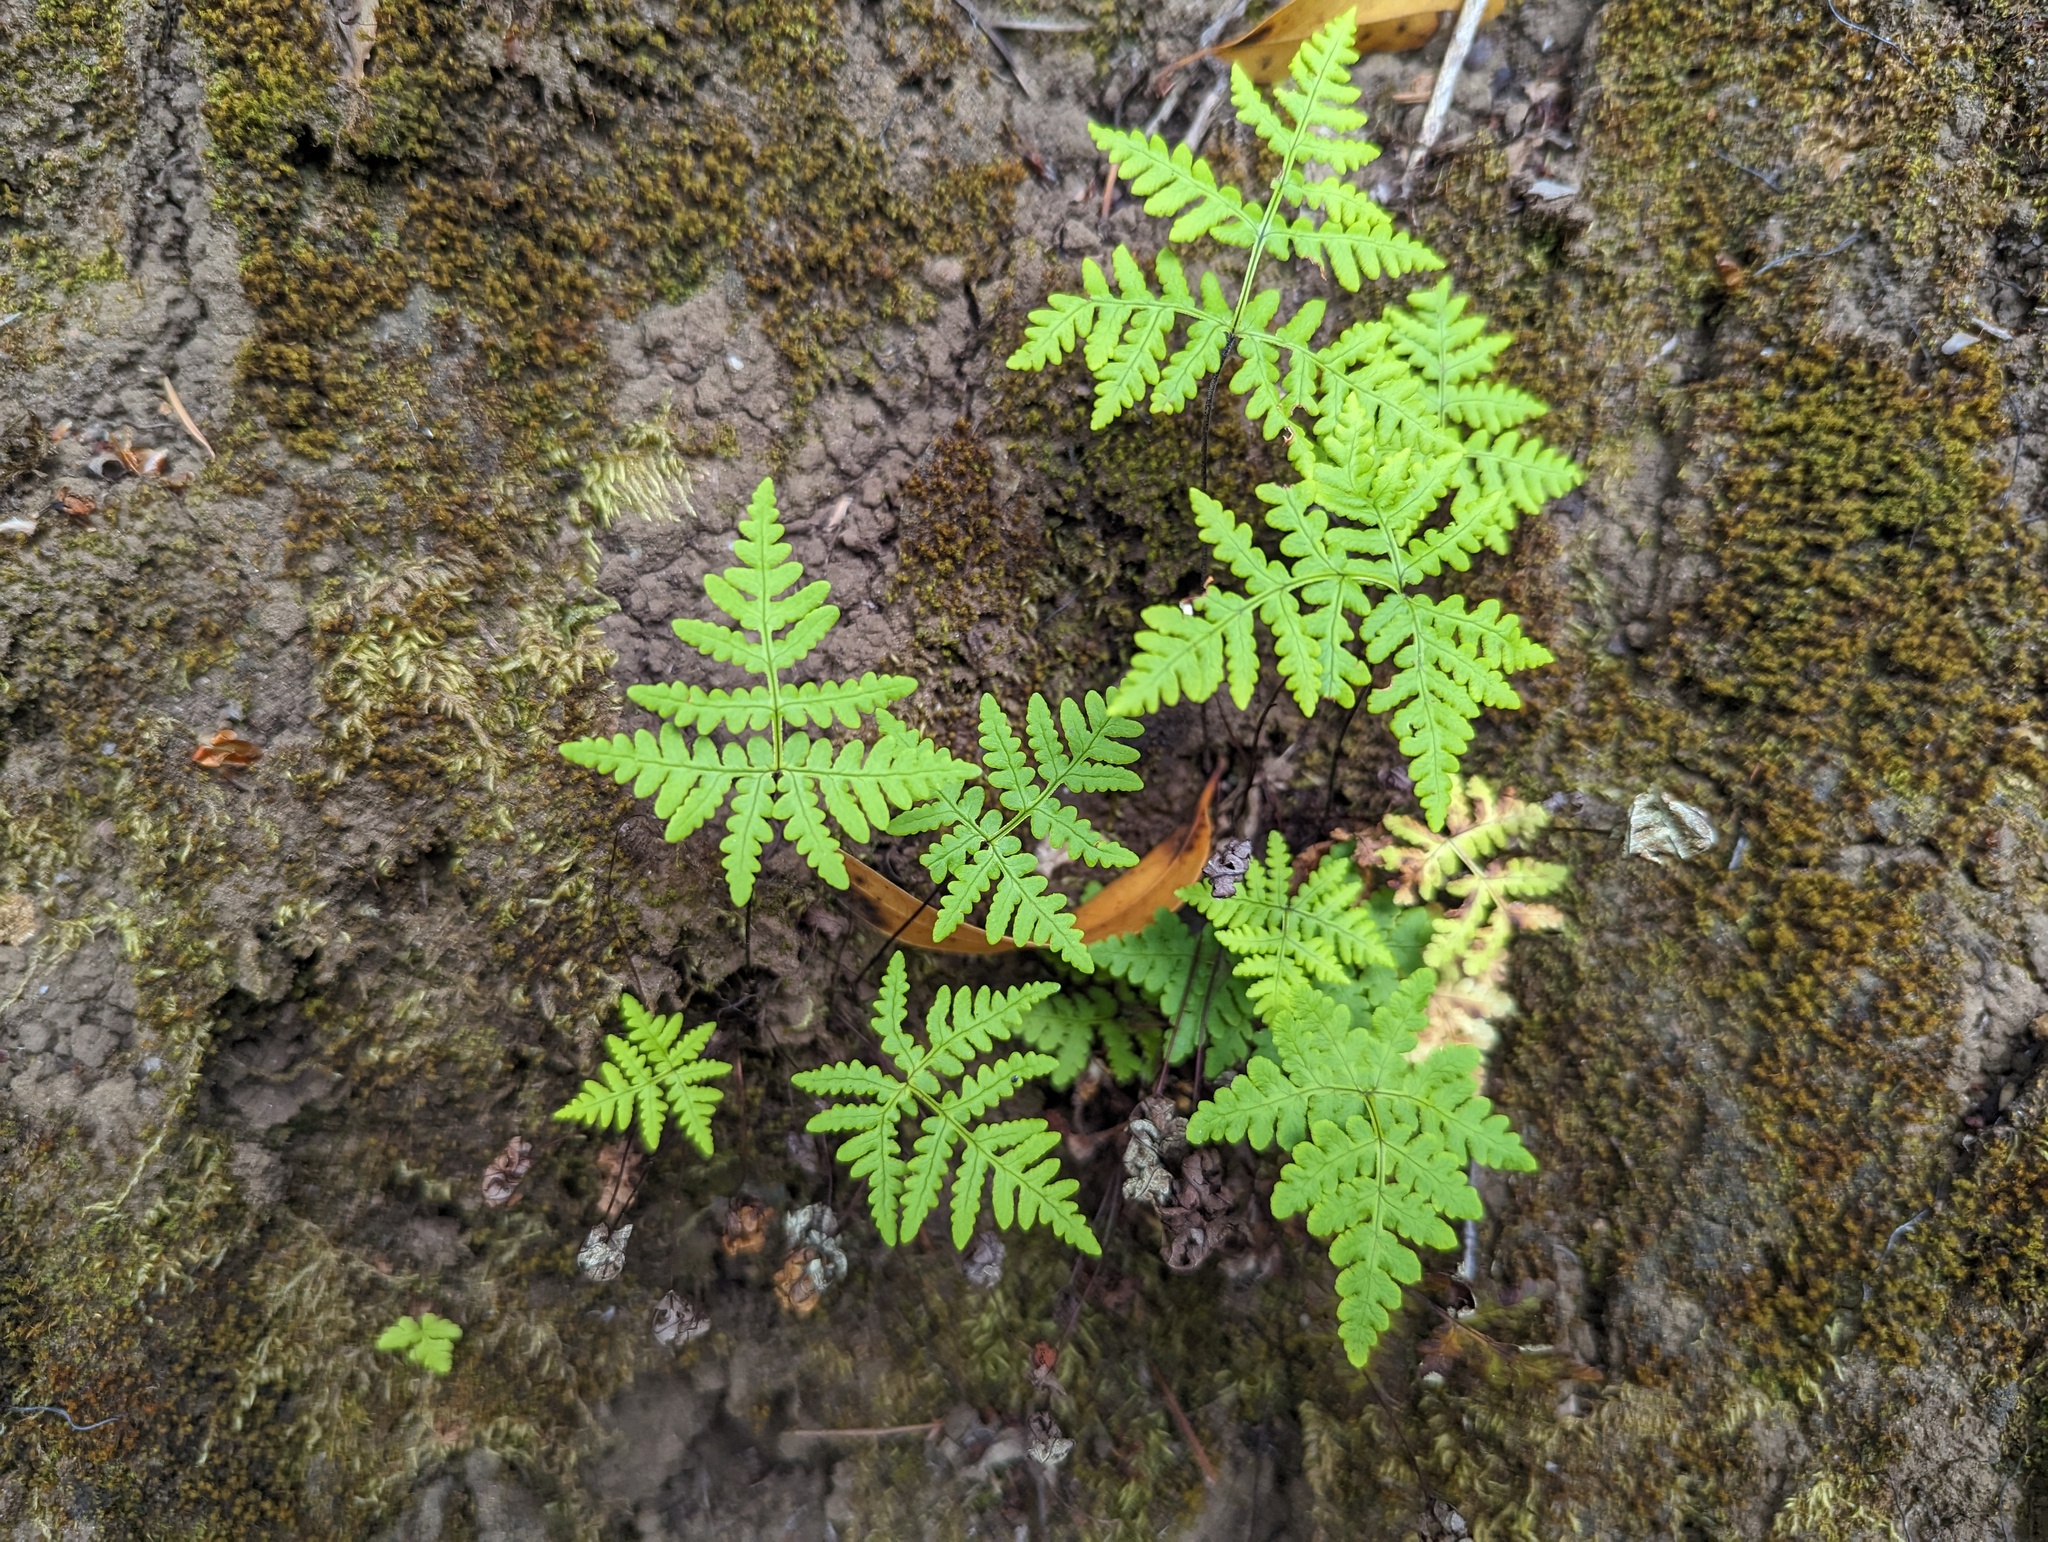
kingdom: Plantae
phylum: Tracheophyta
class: Polypodiopsida
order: Polypodiales
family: Pteridaceae
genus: Pentagramma
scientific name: Pentagramma triangularis
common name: Gold fern
